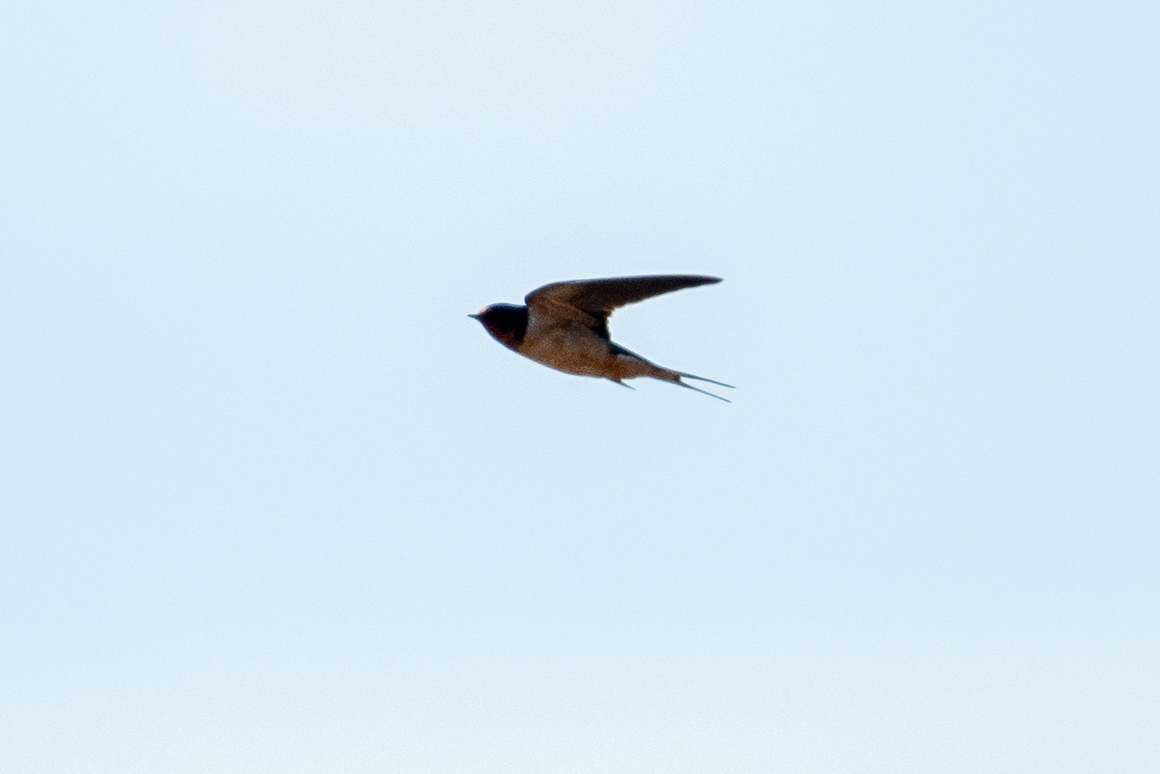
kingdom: Animalia
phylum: Chordata
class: Aves
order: Passeriformes
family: Hirundinidae
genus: Hirundo
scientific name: Hirundo rustica
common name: Barn swallow
